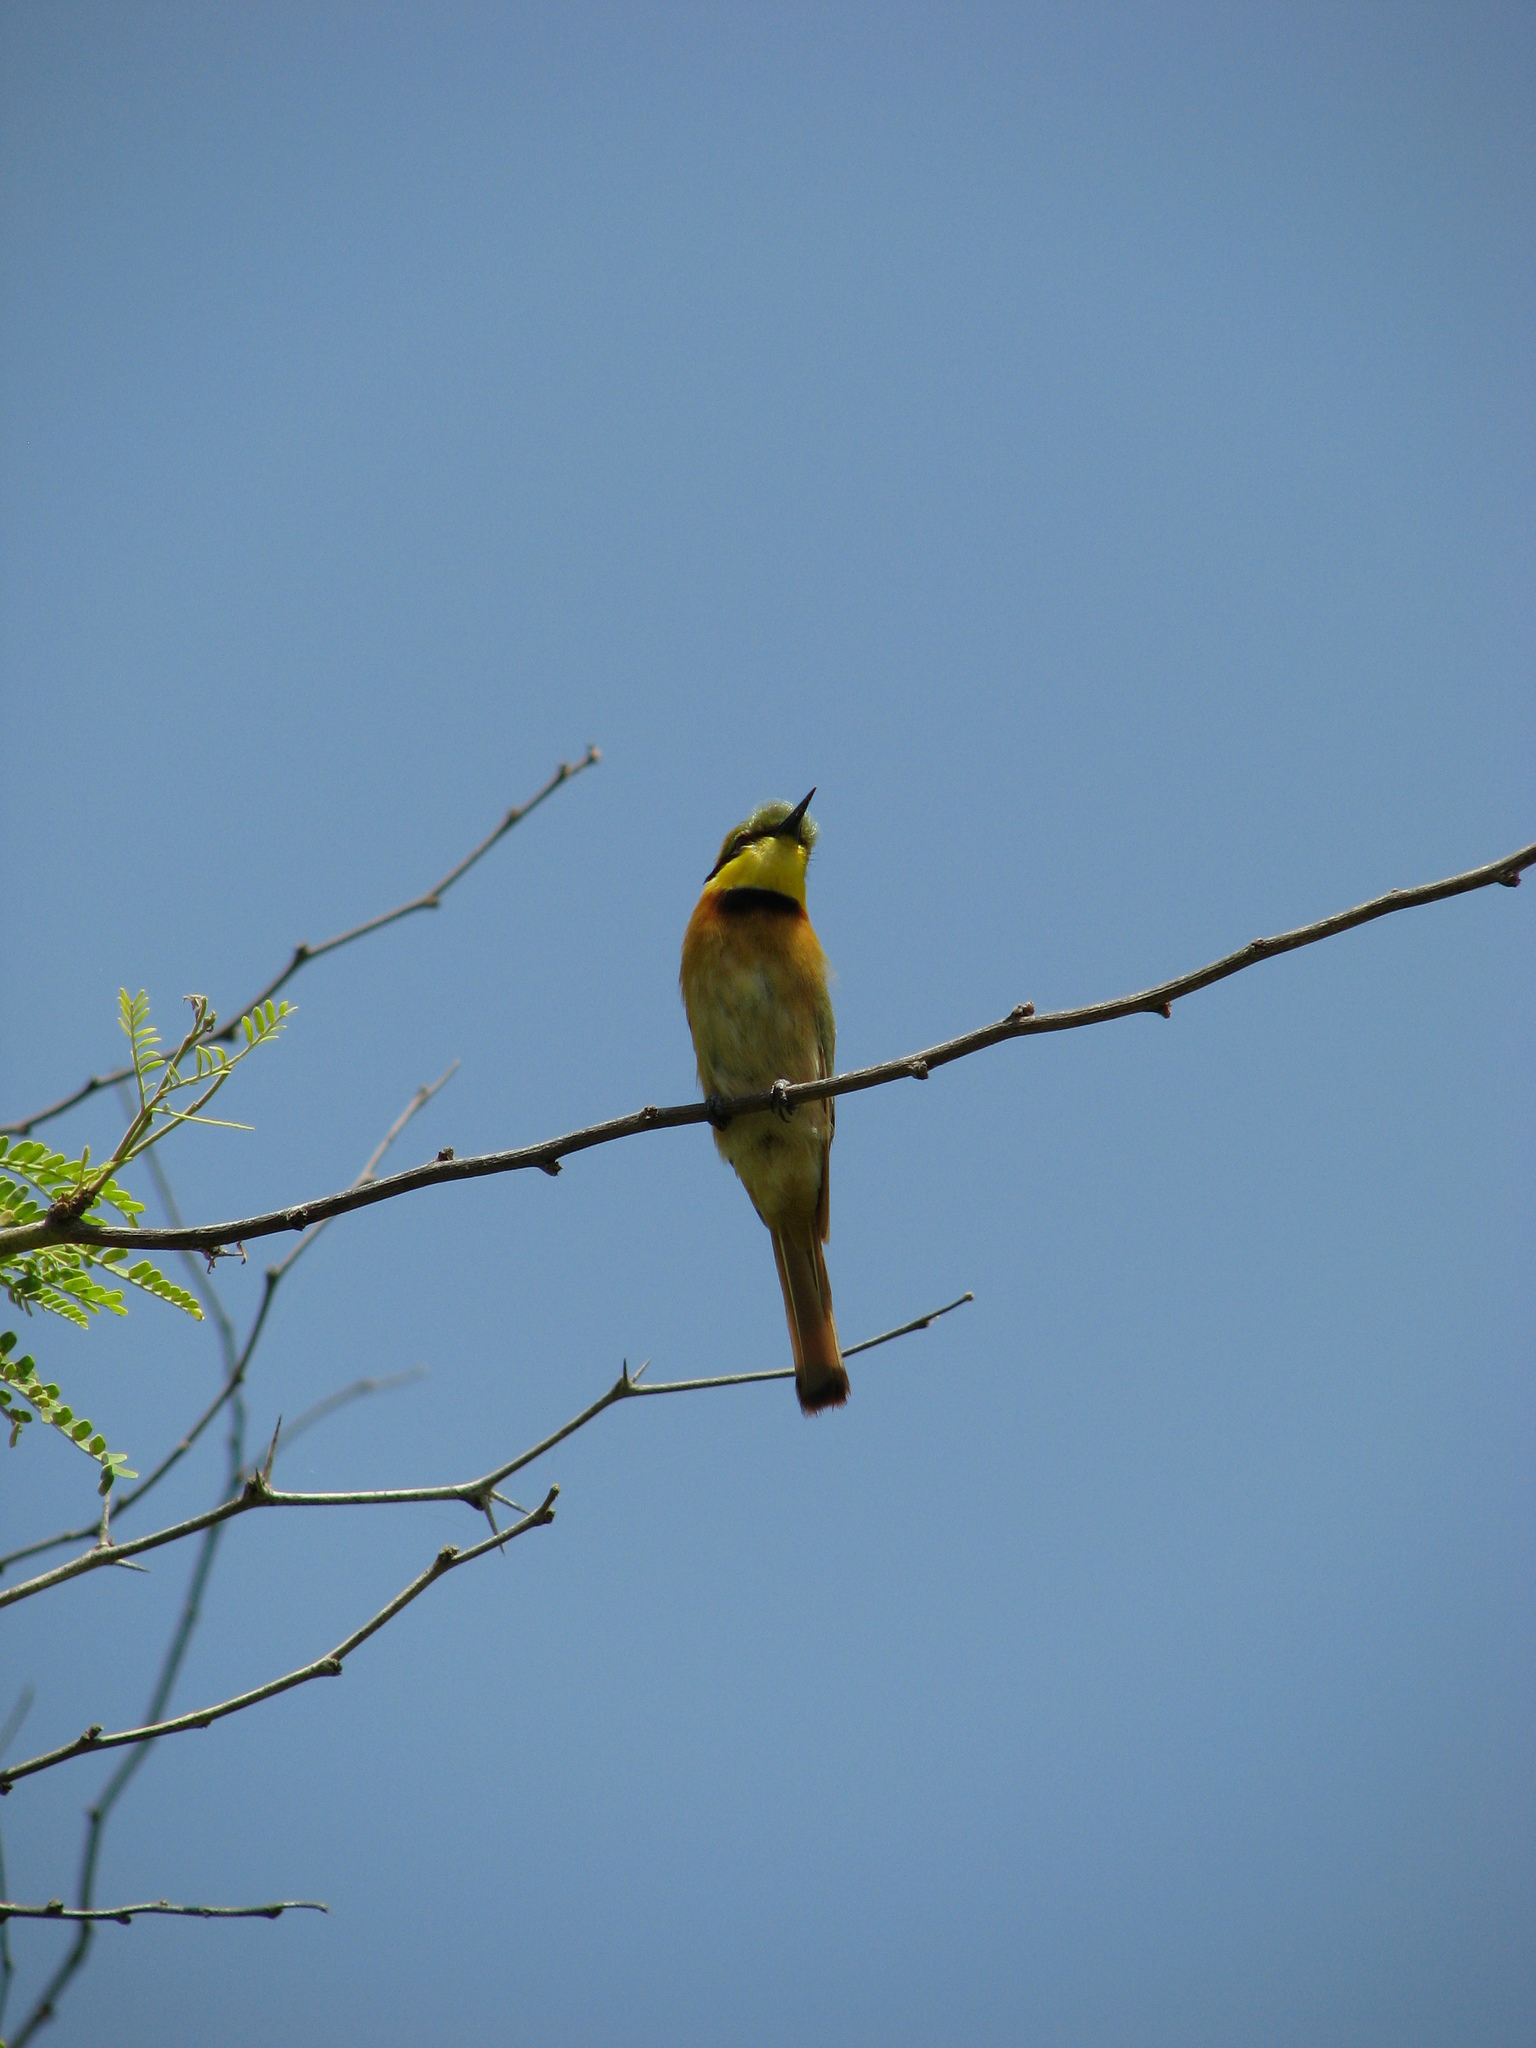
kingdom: Animalia
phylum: Chordata
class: Aves
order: Coraciiformes
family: Meropidae
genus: Merops
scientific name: Merops pusillus
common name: Little bee-eater
